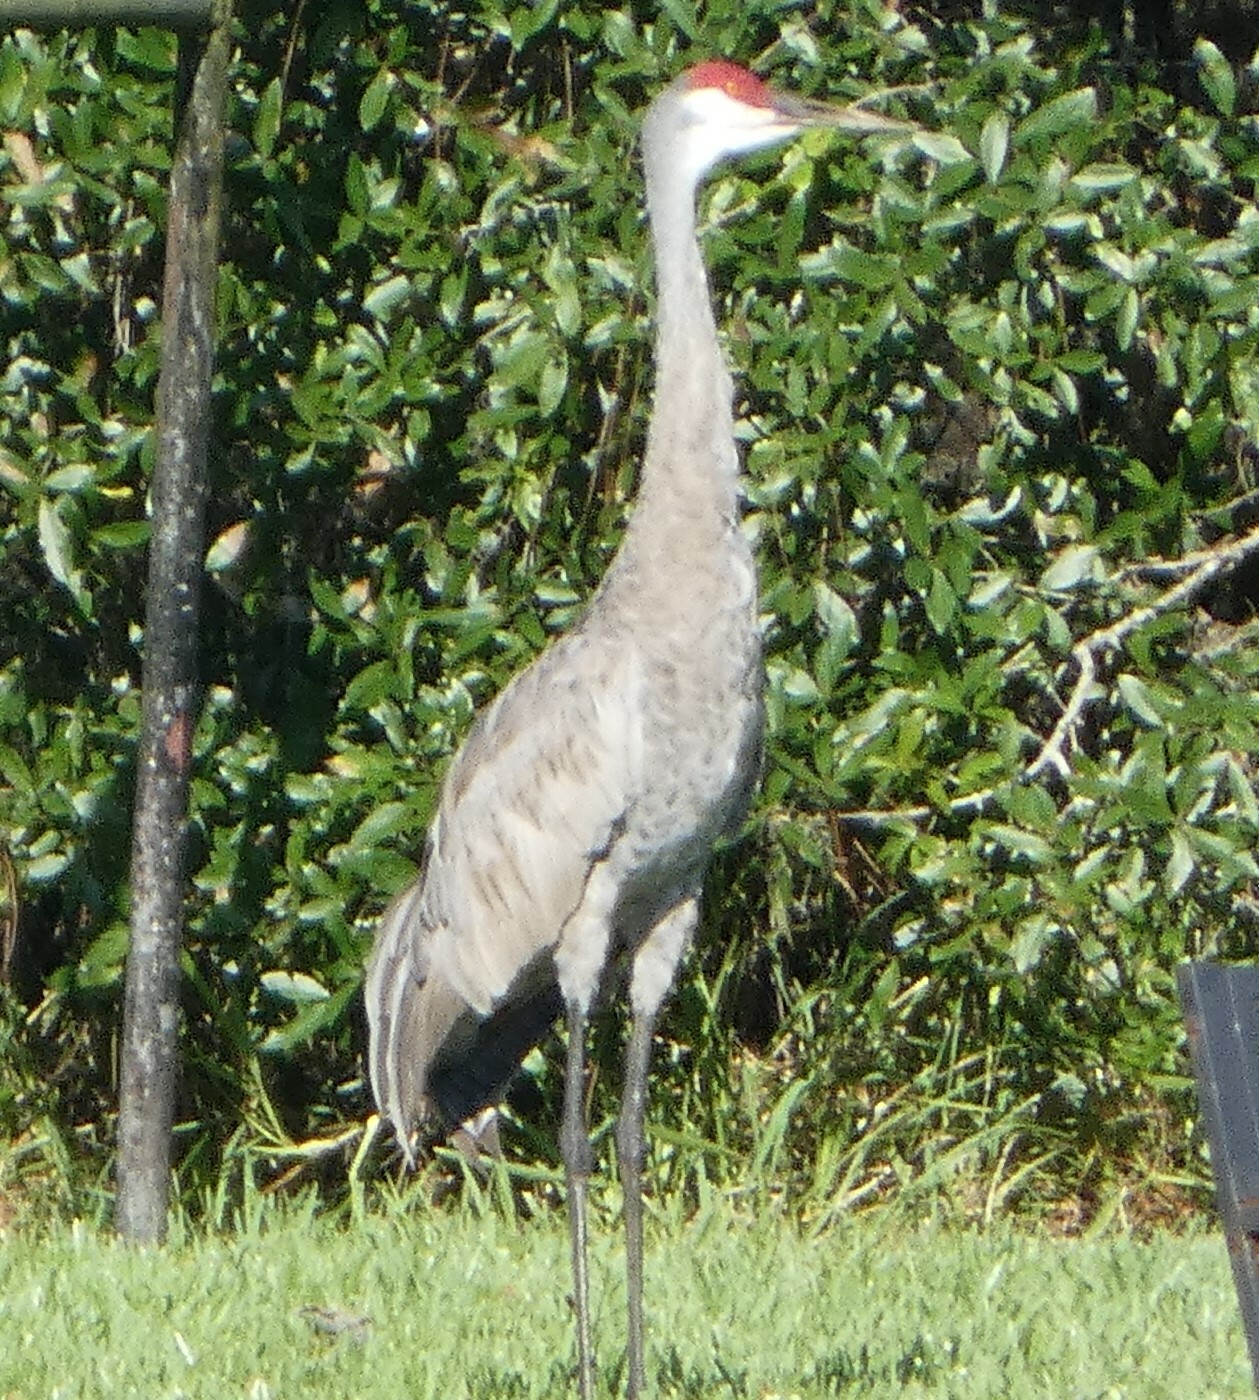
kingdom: Animalia
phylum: Chordata
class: Aves
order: Gruiformes
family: Gruidae
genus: Grus
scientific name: Grus canadensis
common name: Sandhill crane
